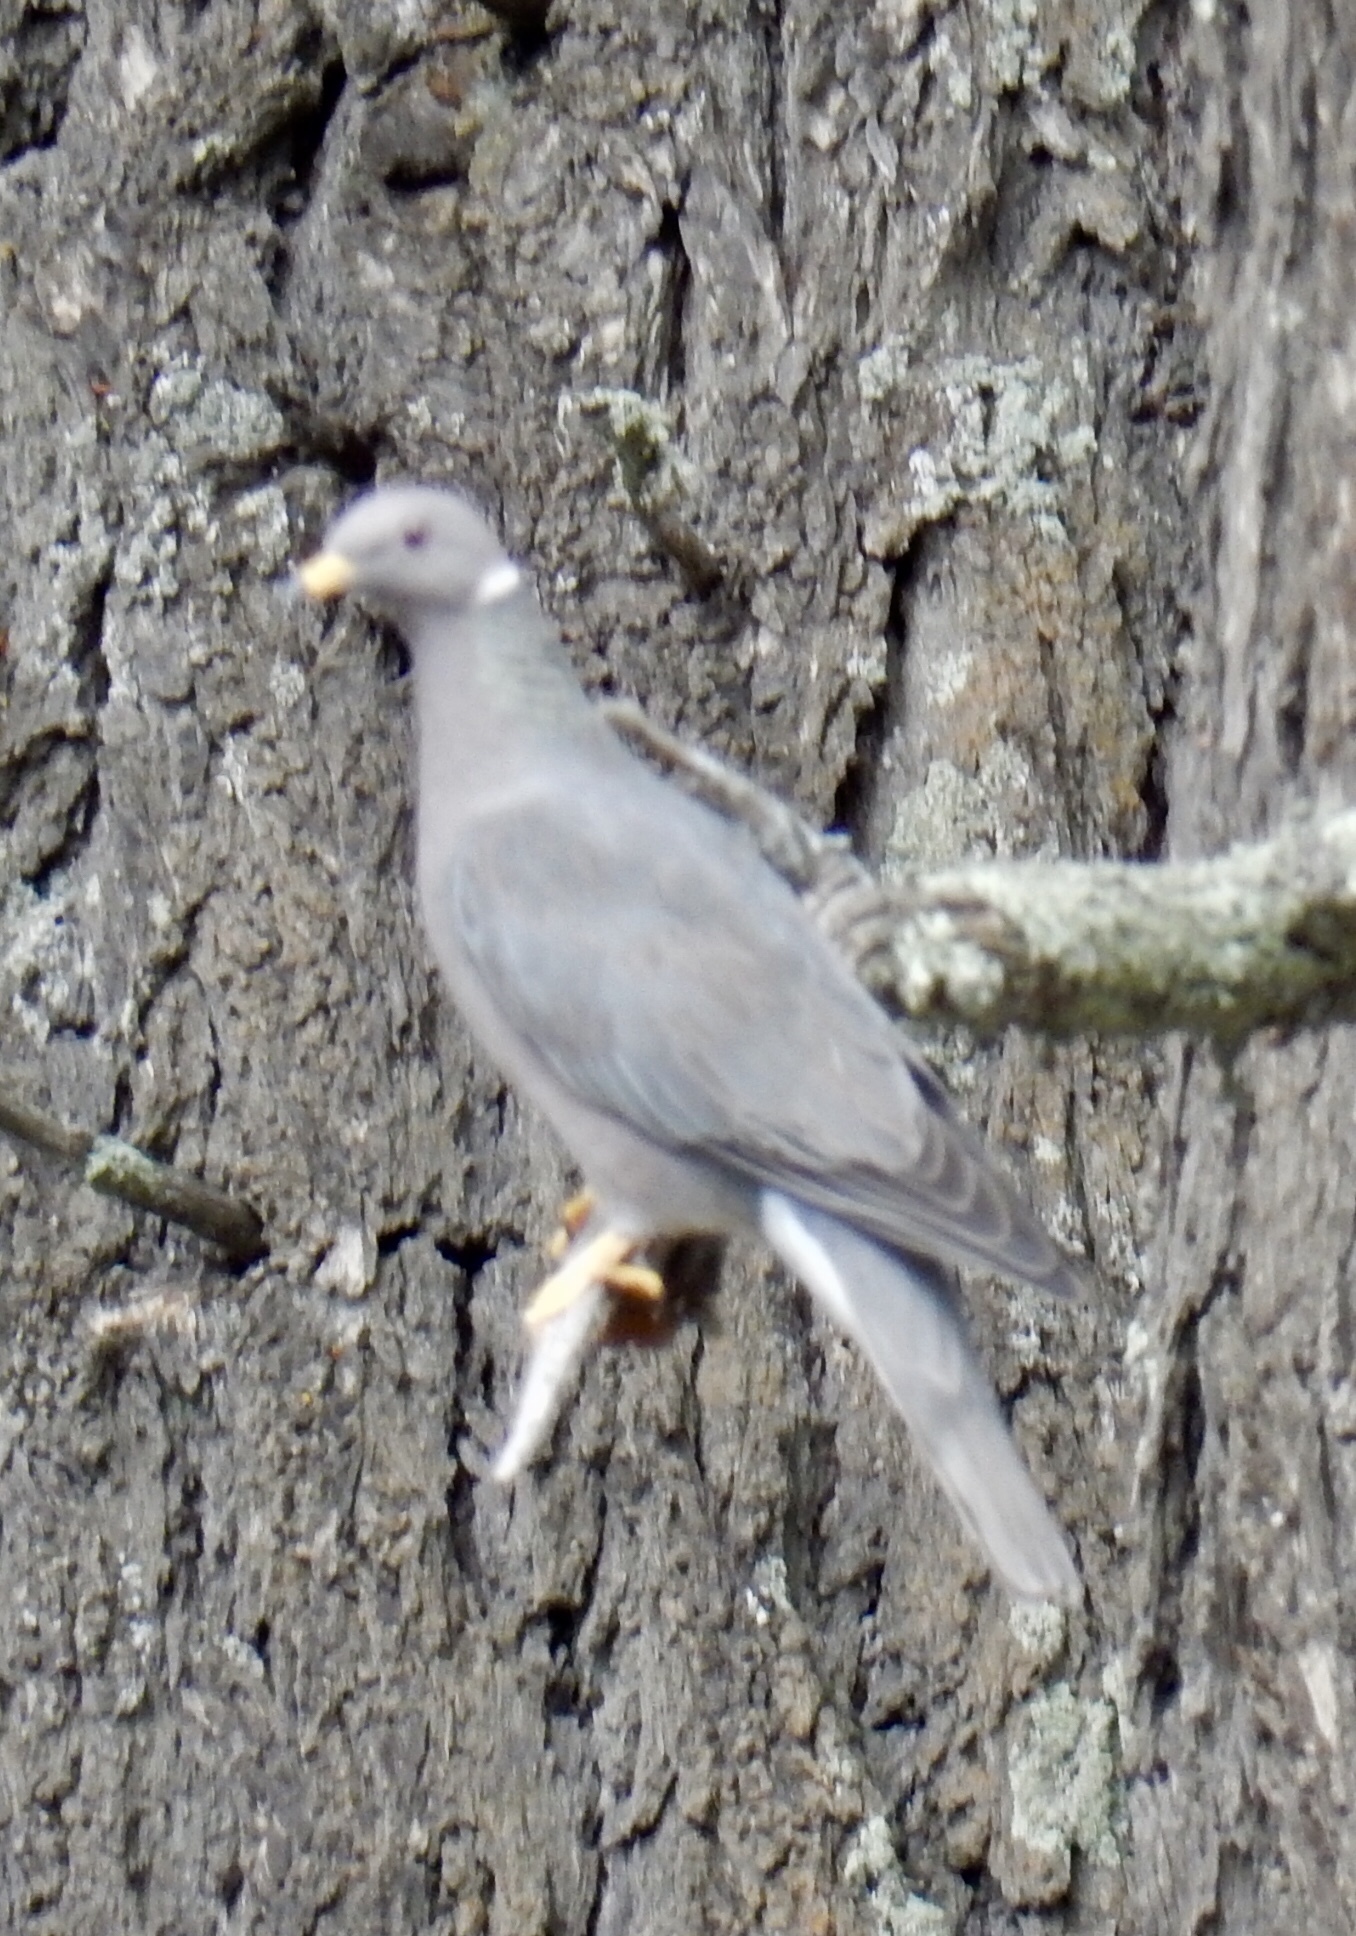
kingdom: Animalia
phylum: Chordata
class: Aves
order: Columbiformes
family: Columbidae
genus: Patagioenas
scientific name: Patagioenas fasciata
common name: Band-tailed pigeon
